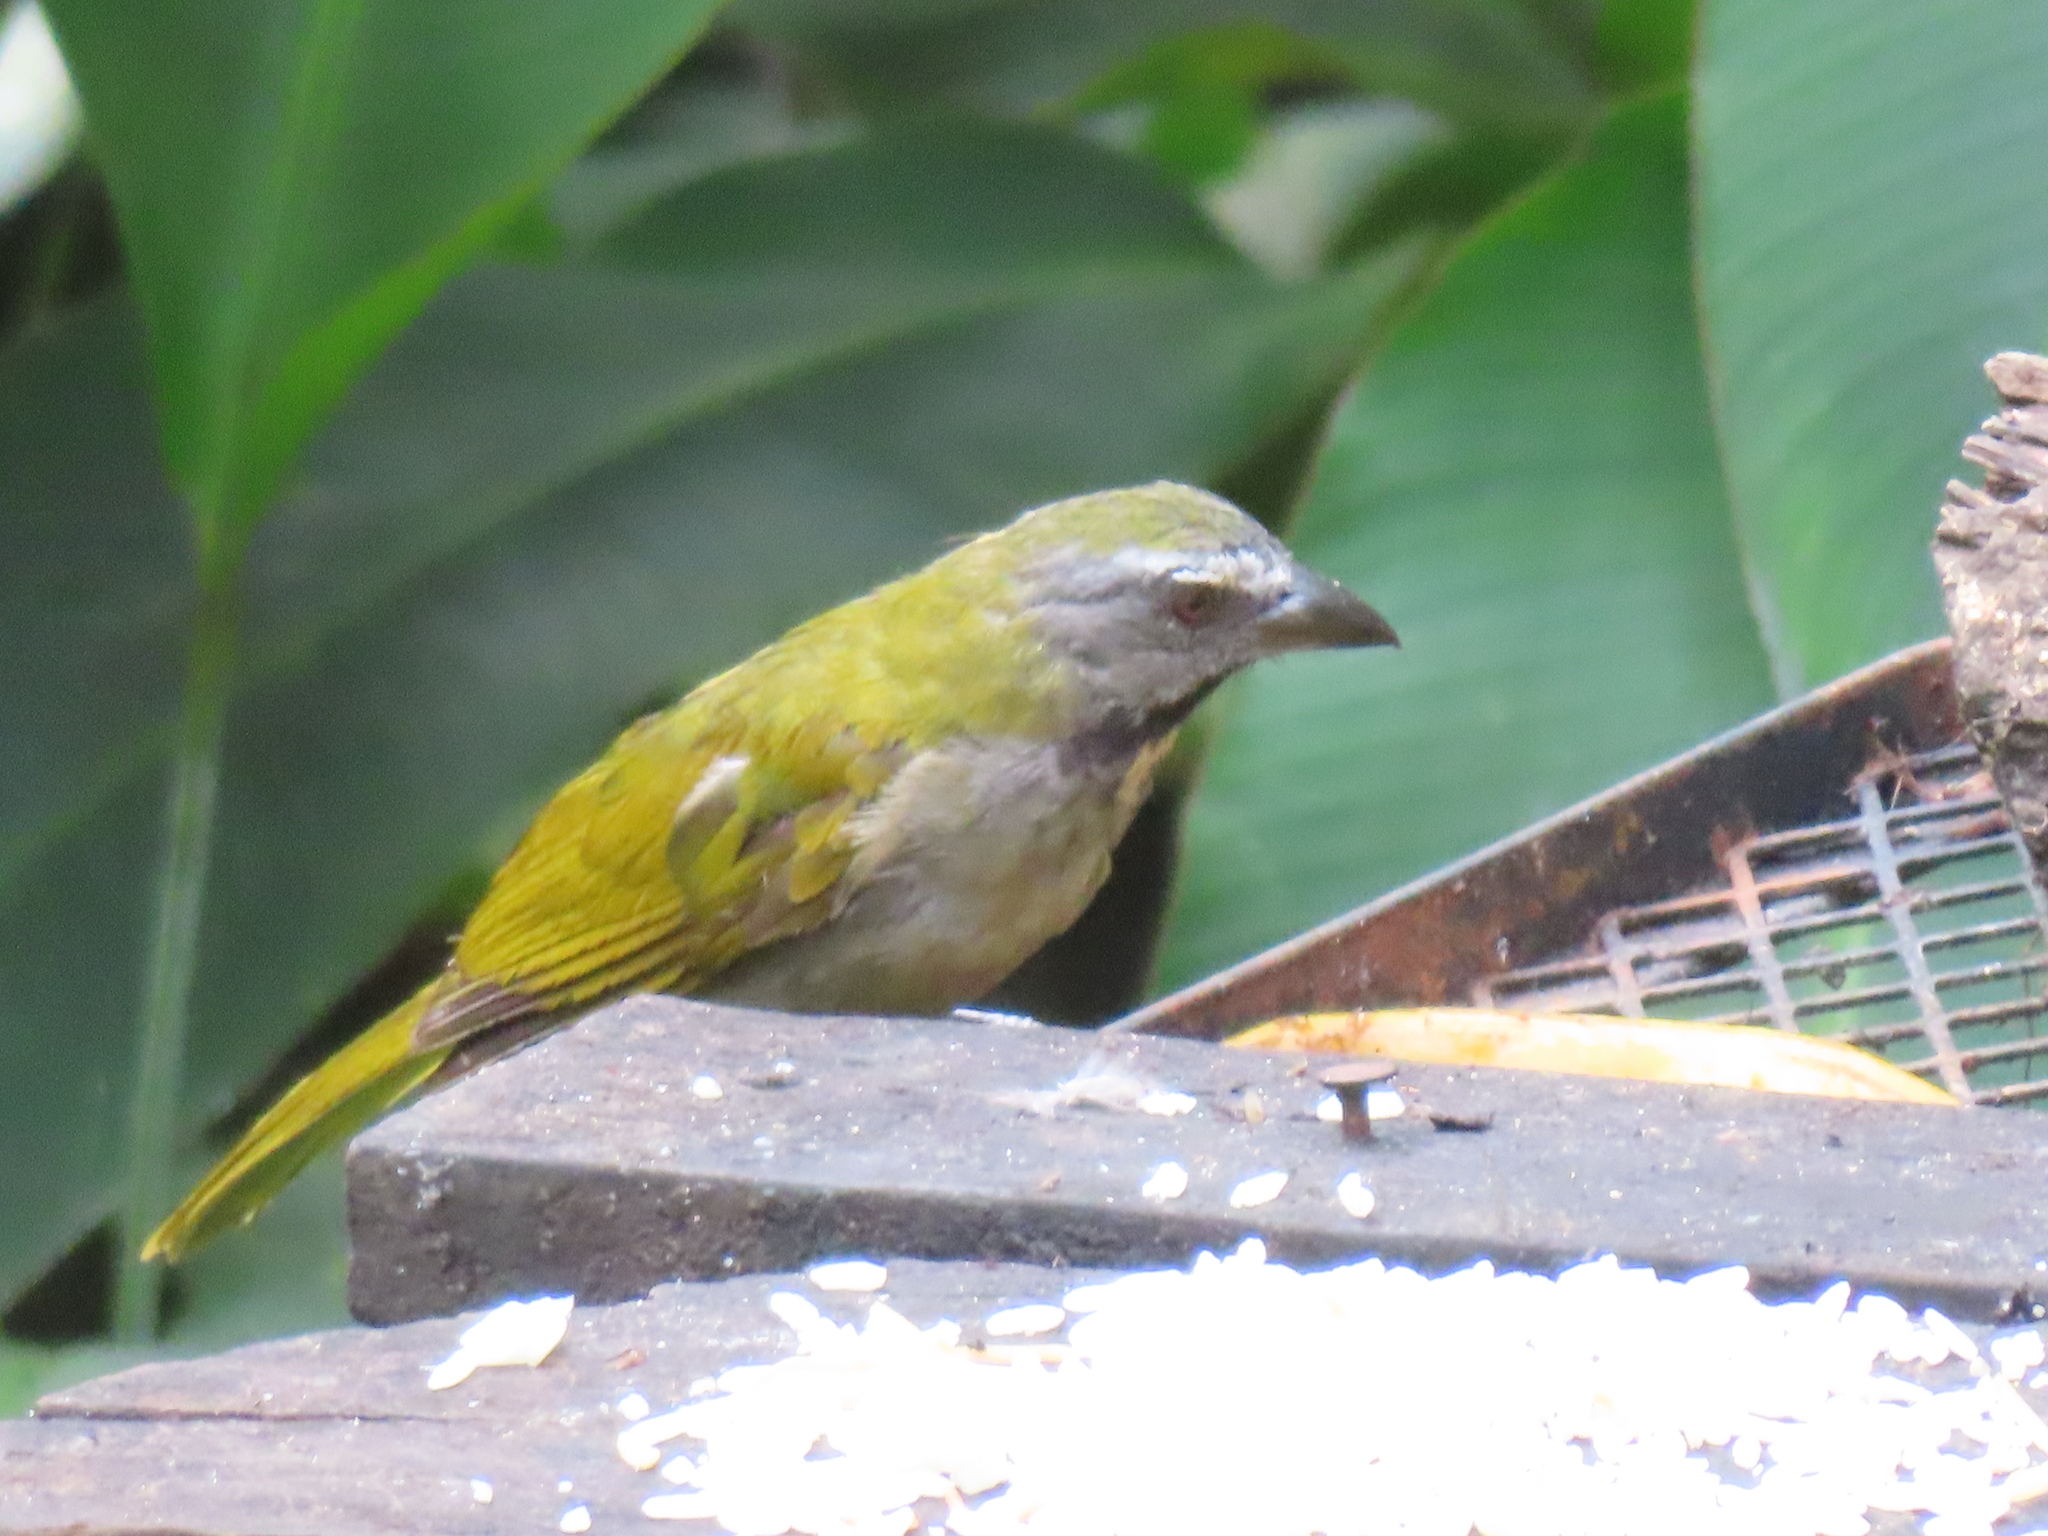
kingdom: Animalia
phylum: Chordata
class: Aves
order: Passeriformes
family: Thraupidae
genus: Saltator
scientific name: Saltator maximus
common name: Buff-throated saltator
